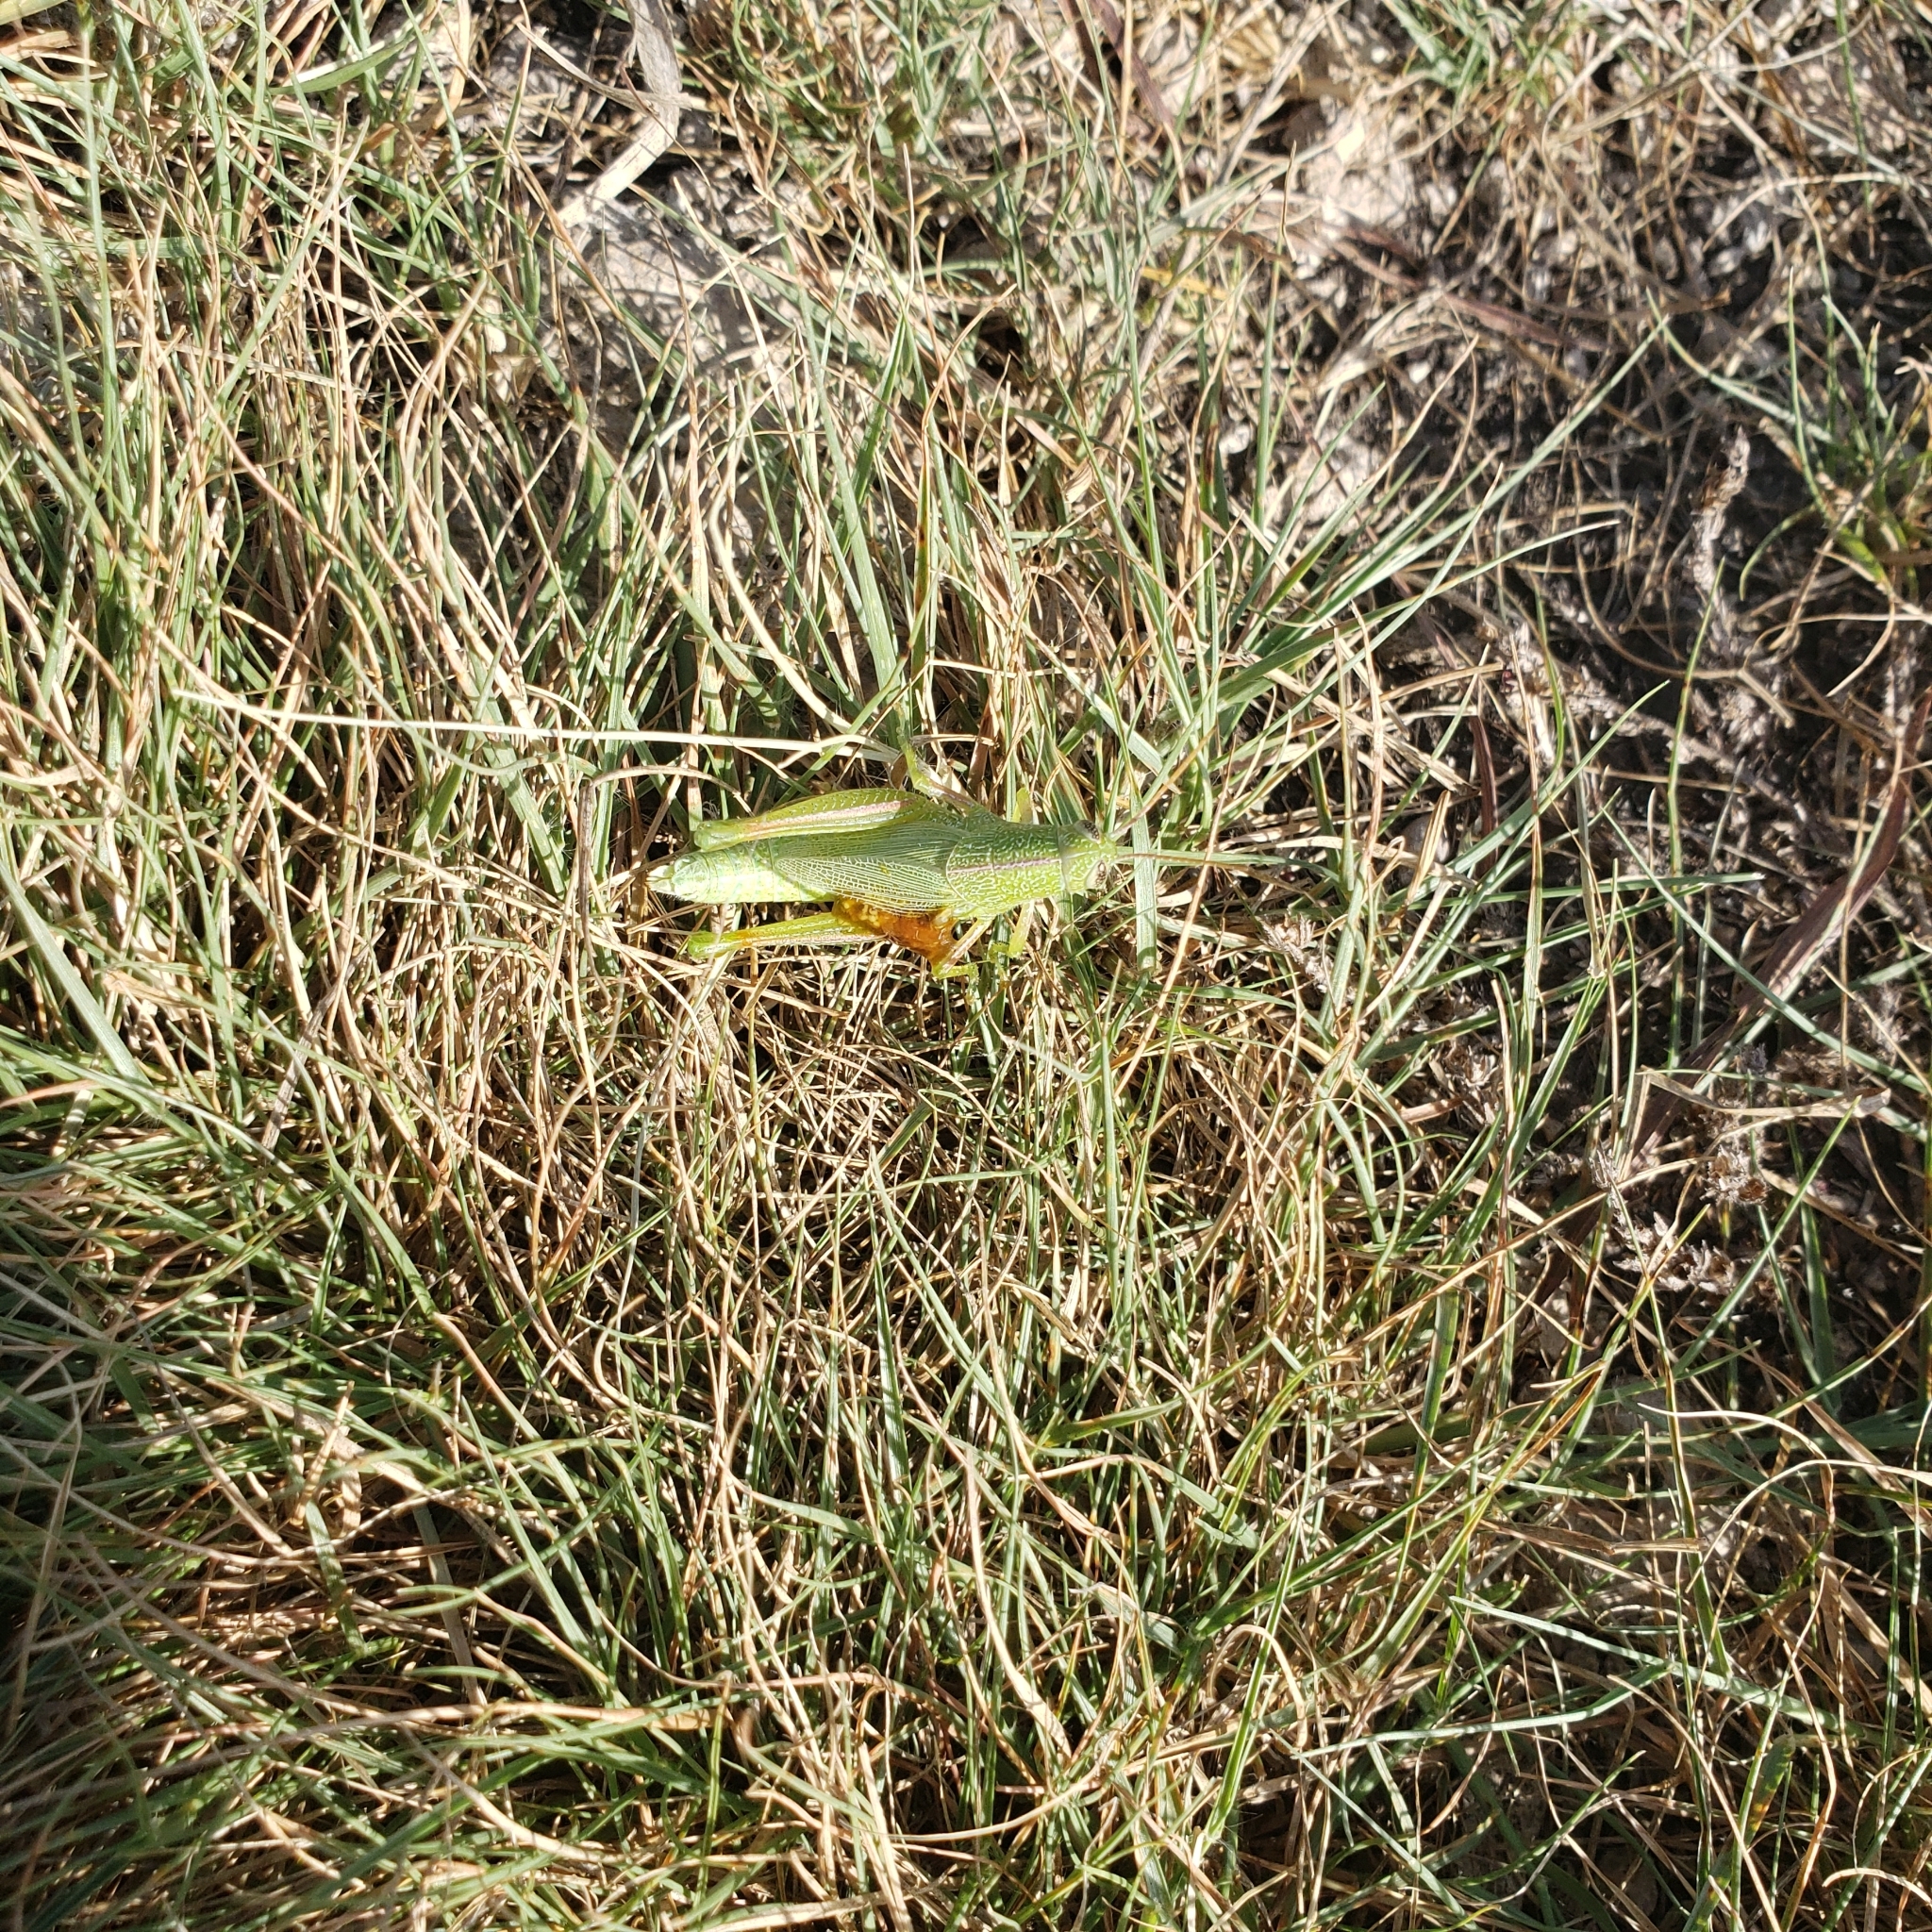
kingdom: Animalia
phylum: Arthropoda
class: Insecta
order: Orthoptera
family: Acrididae
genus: Hesperotettix
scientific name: Hesperotettix speciosus
